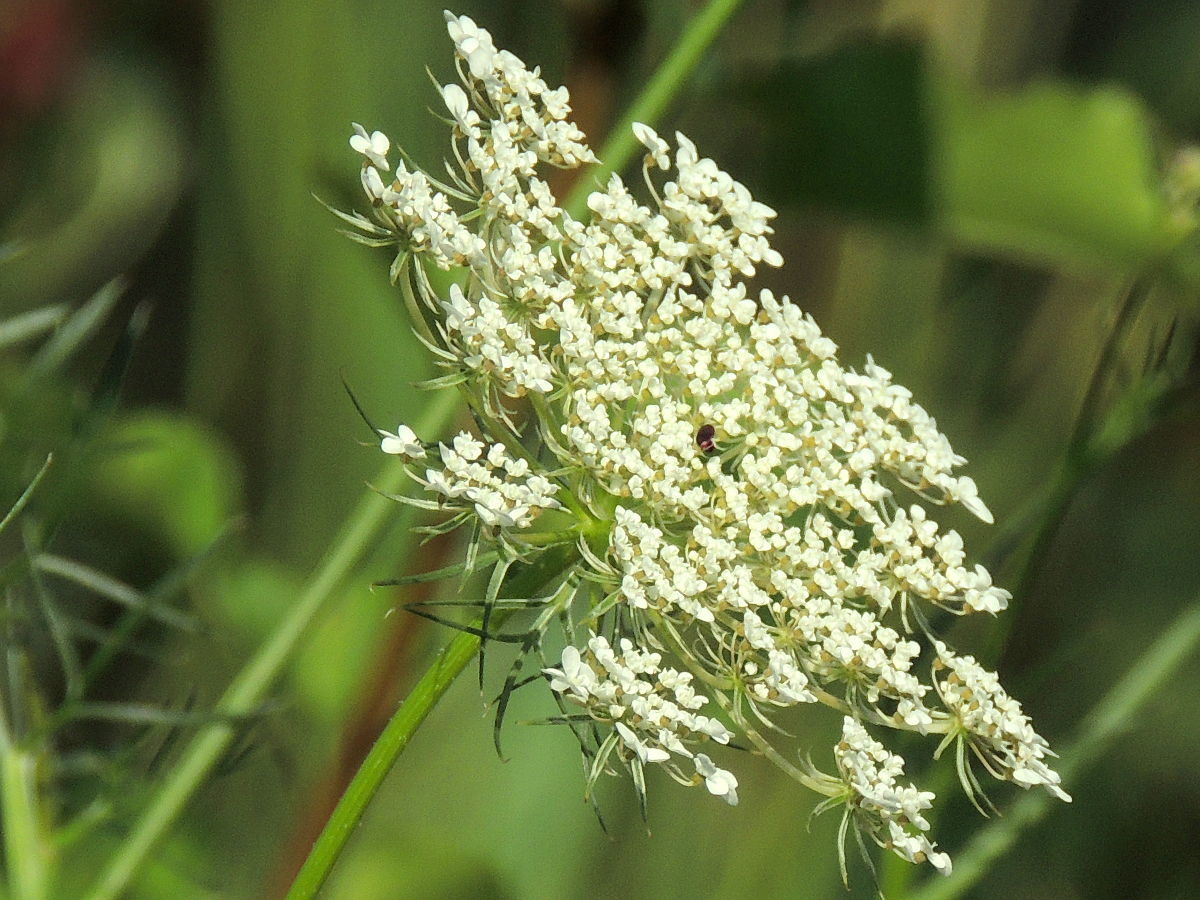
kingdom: Plantae
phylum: Tracheophyta
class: Magnoliopsida
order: Apiales
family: Apiaceae
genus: Daucus
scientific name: Daucus carota
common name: Wild carrot
